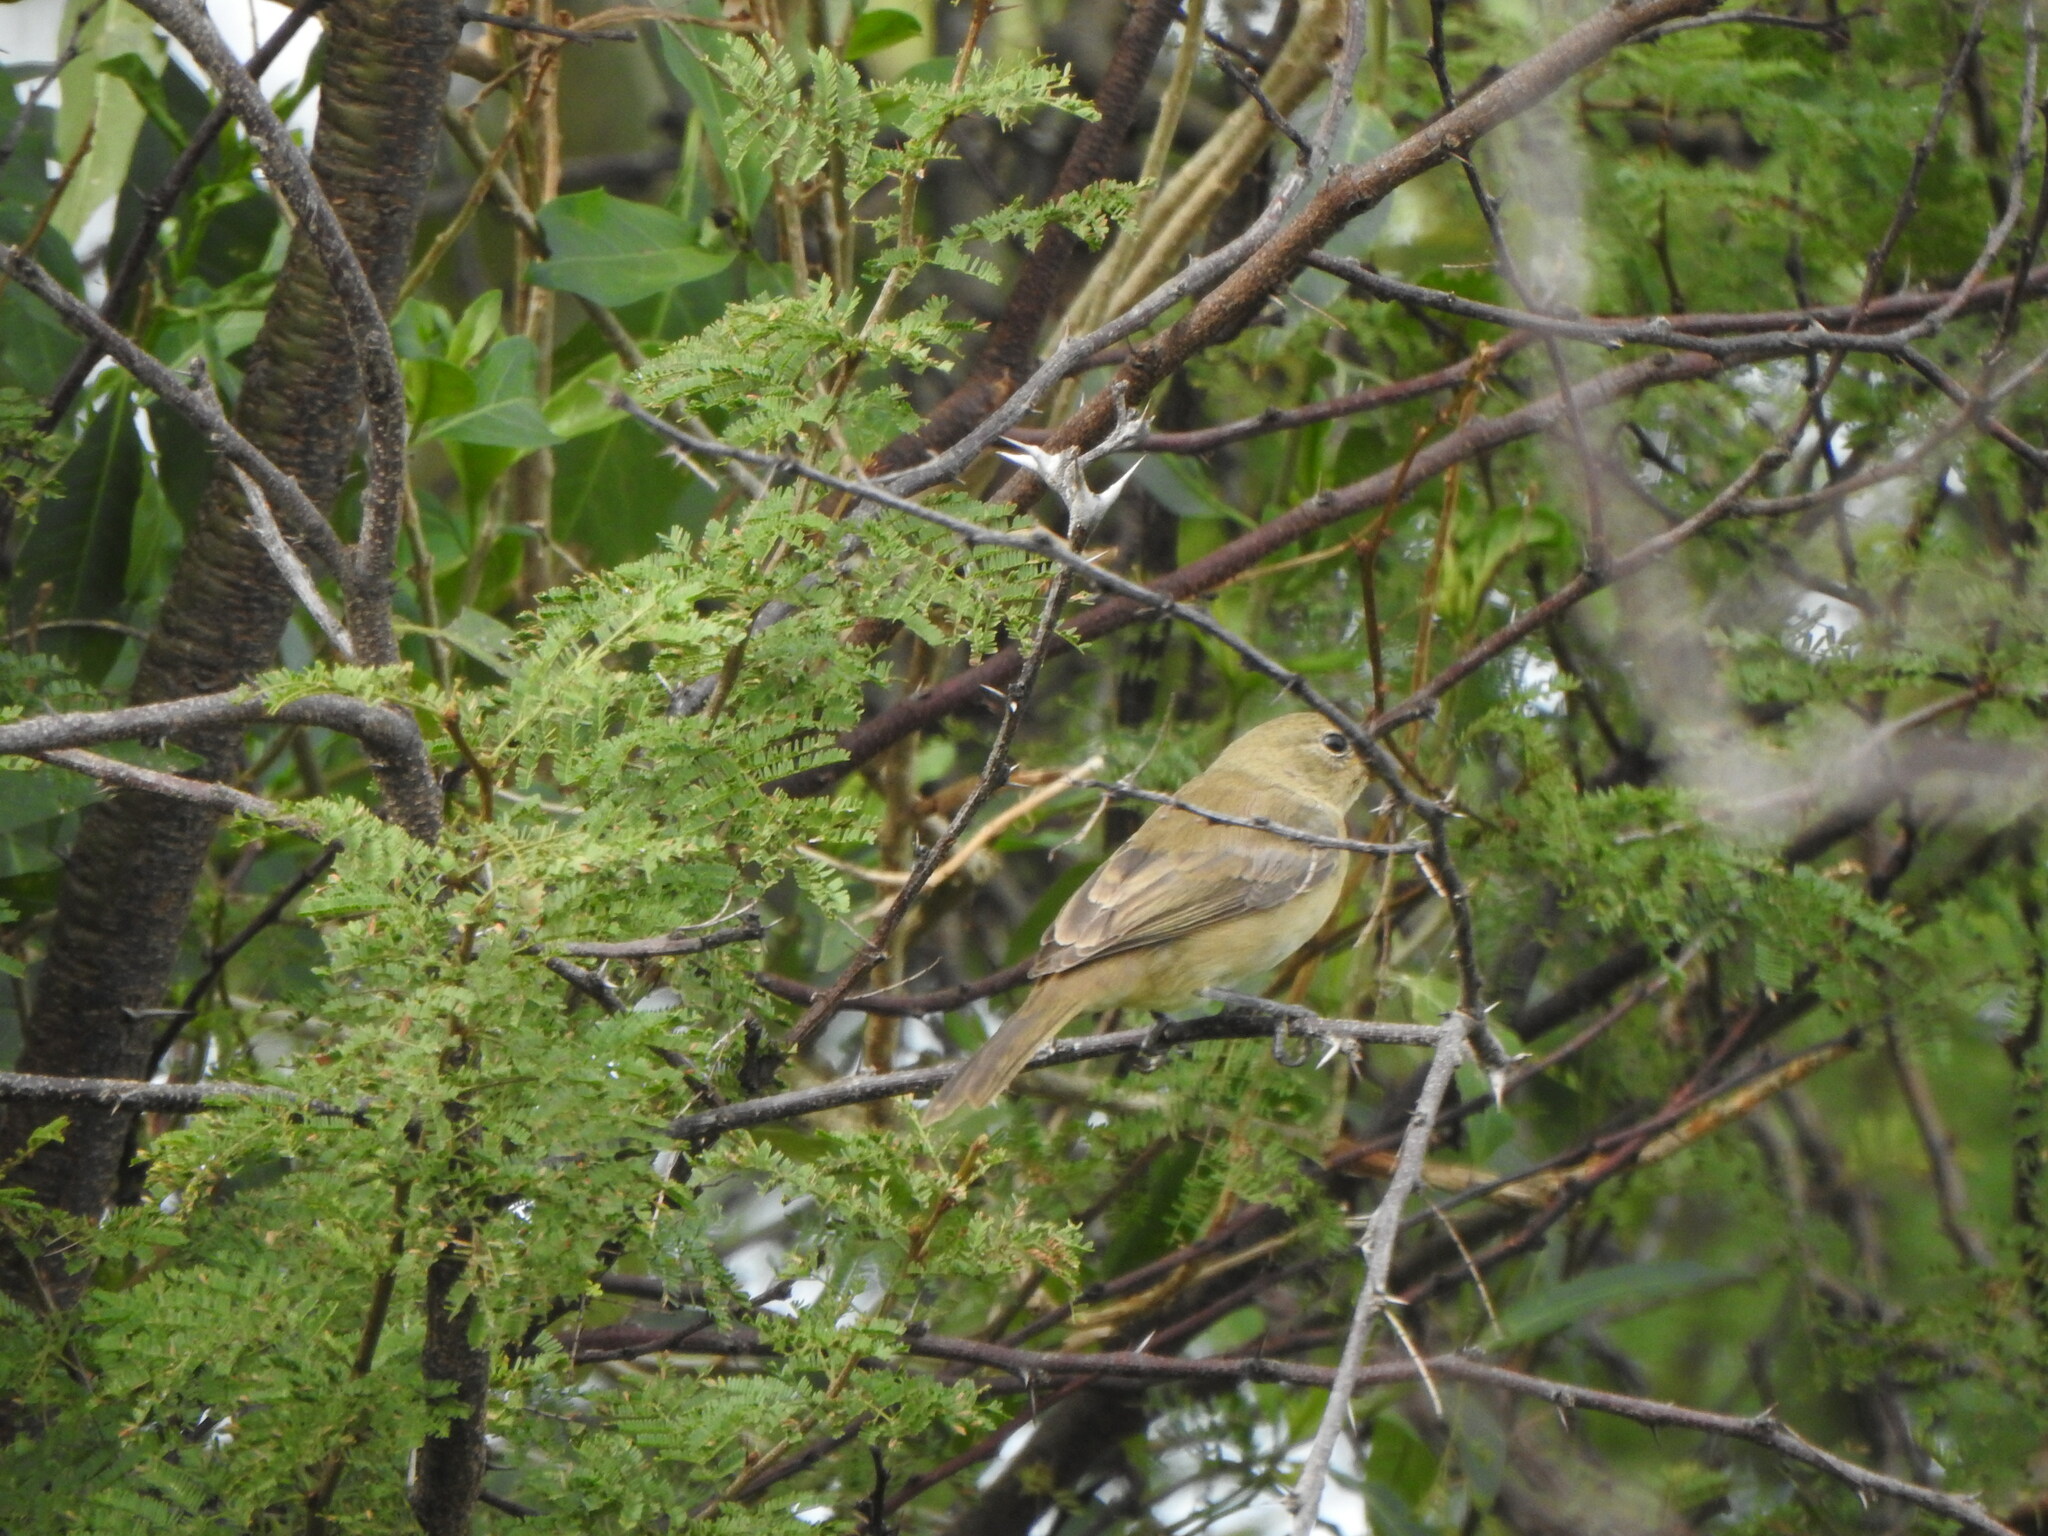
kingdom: Animalia
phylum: Chordata
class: Aves
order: Passeriformes
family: Fringillidae
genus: Spinus
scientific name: Spinus magellanicus
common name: Hooded siskin
